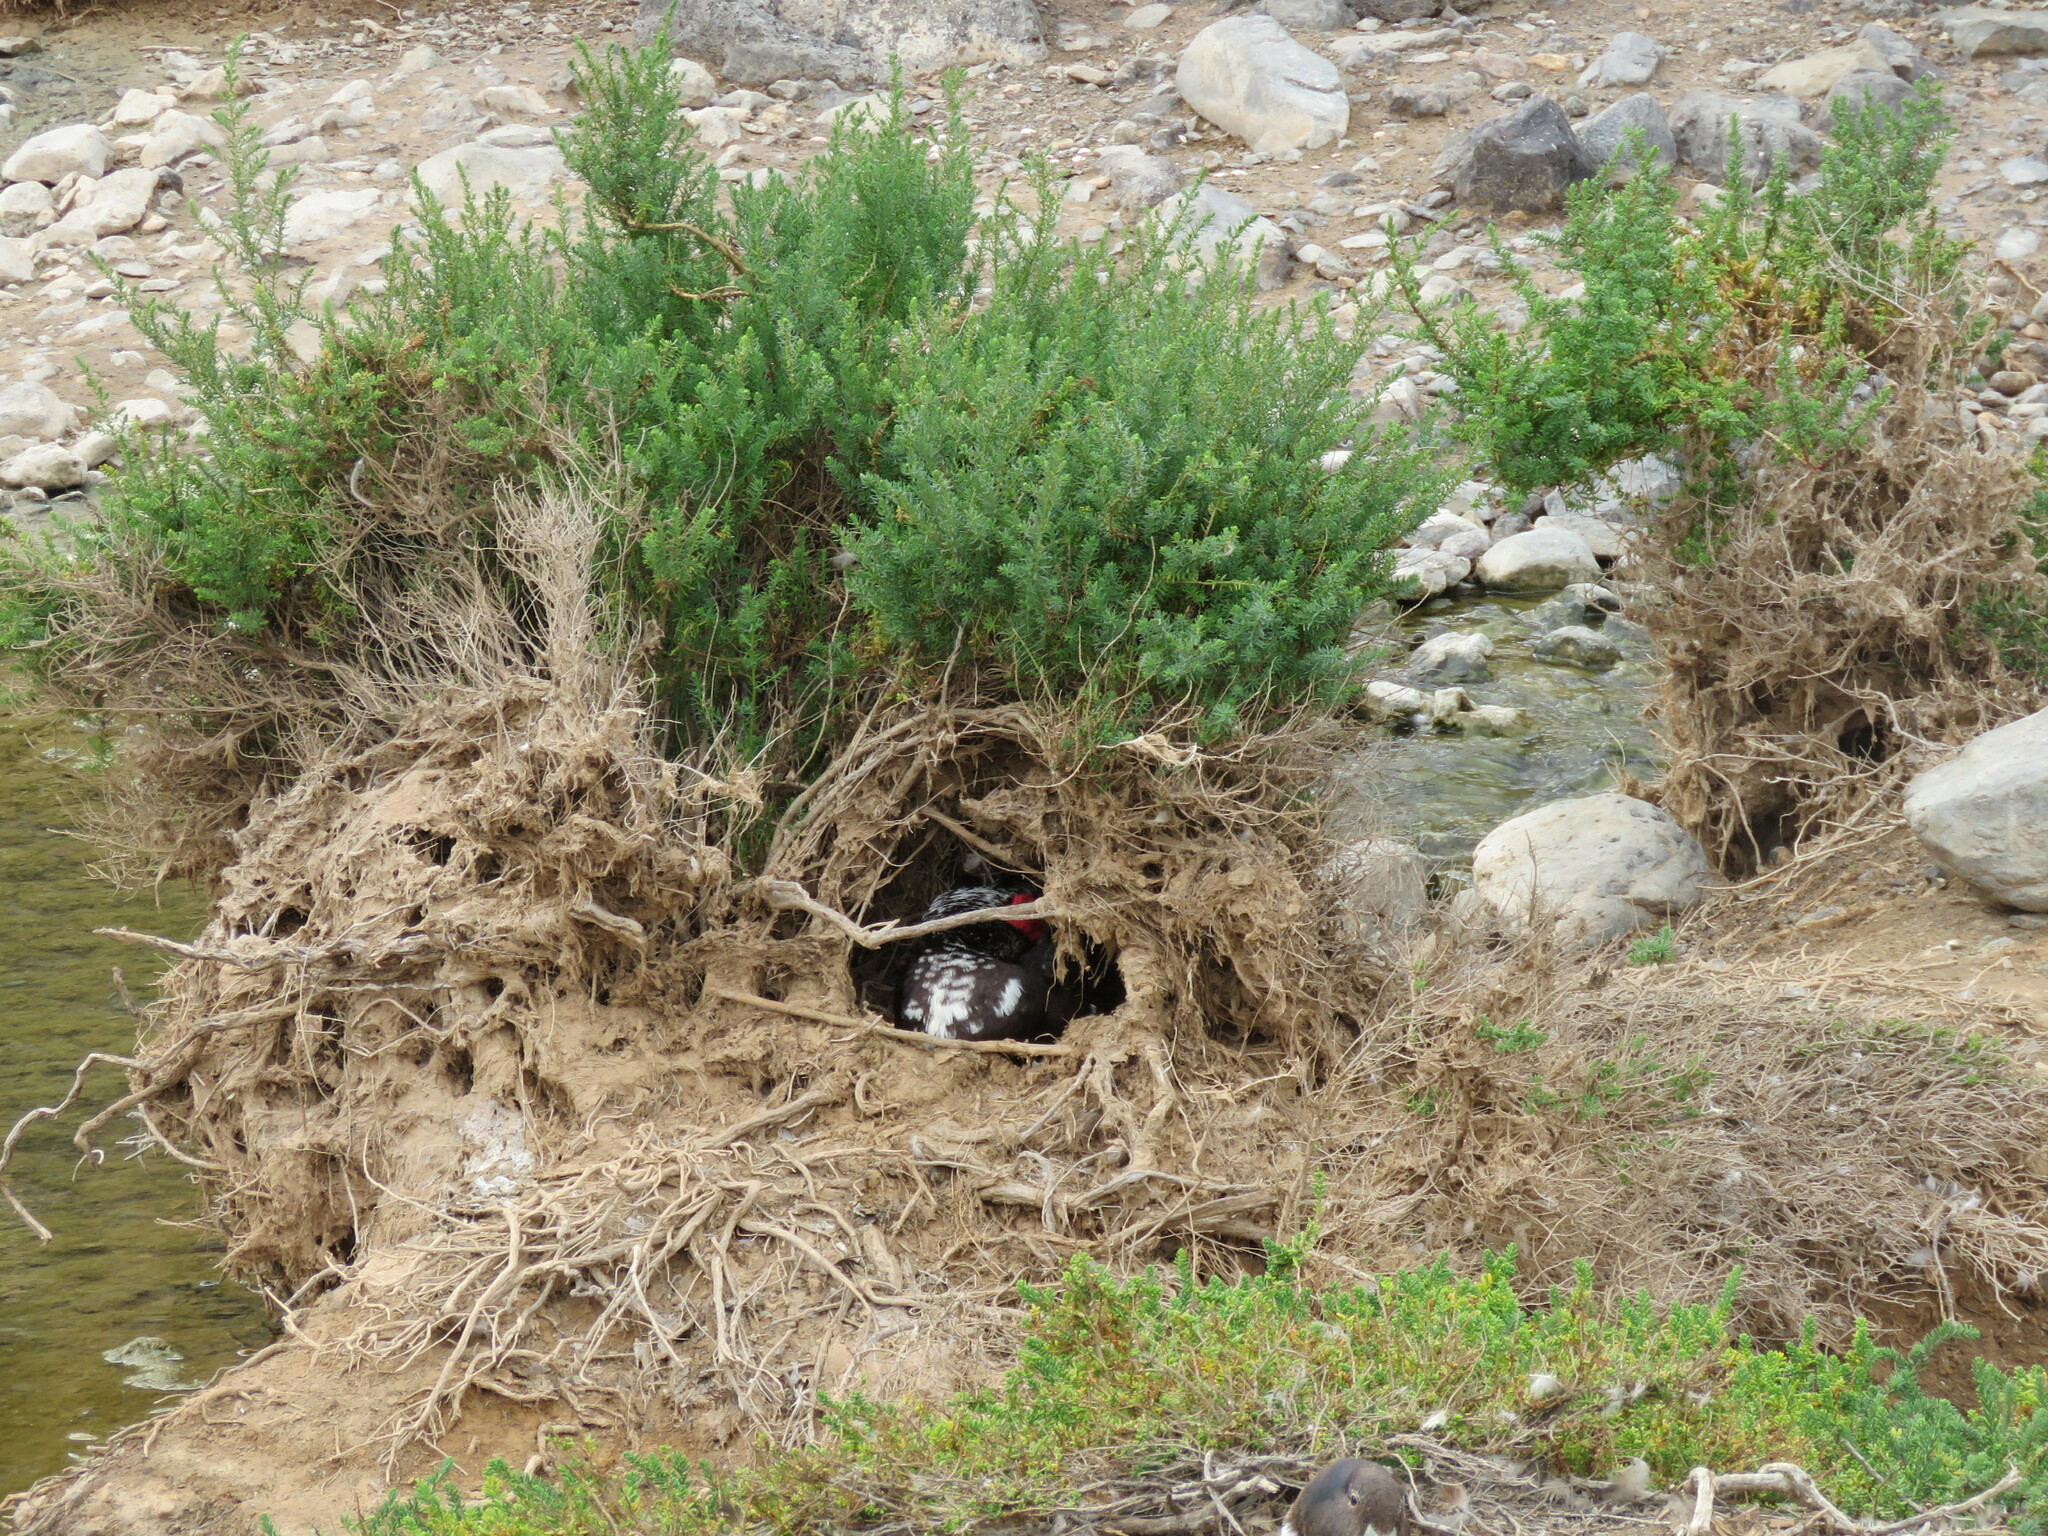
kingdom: Animalia
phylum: Chordata
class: Aves
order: Anseriformes
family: Anatidae
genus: Cairina
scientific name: Cairina moschata
